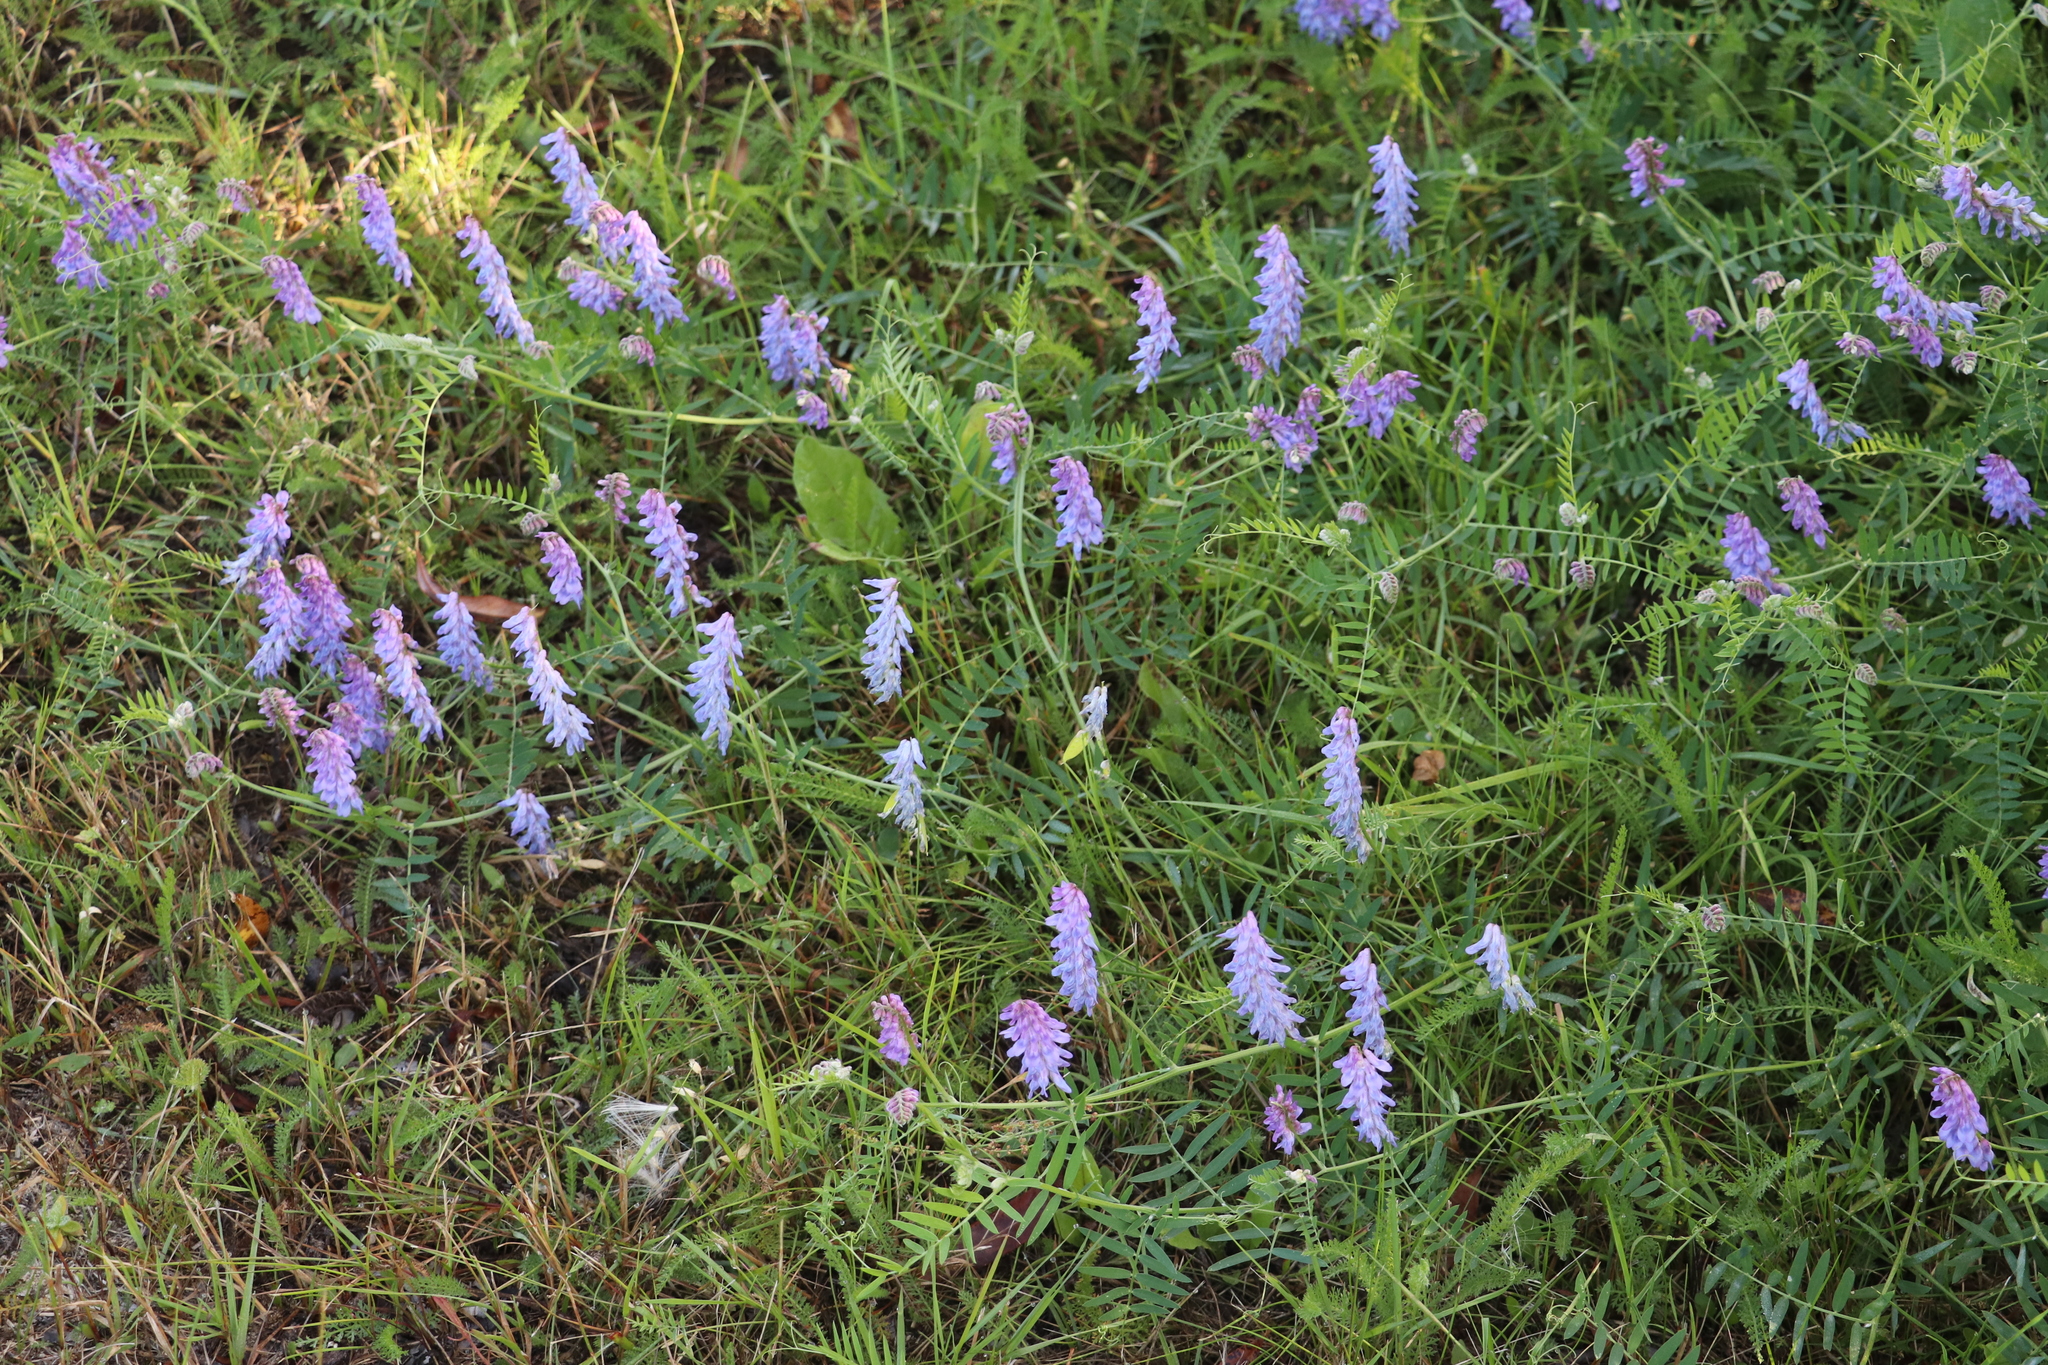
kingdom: Plantae
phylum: Tracheophyta
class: Magnoliopsida
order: Fabales
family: Fabaceae
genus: Vicia
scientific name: Vicia cracca
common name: Bird vetch
